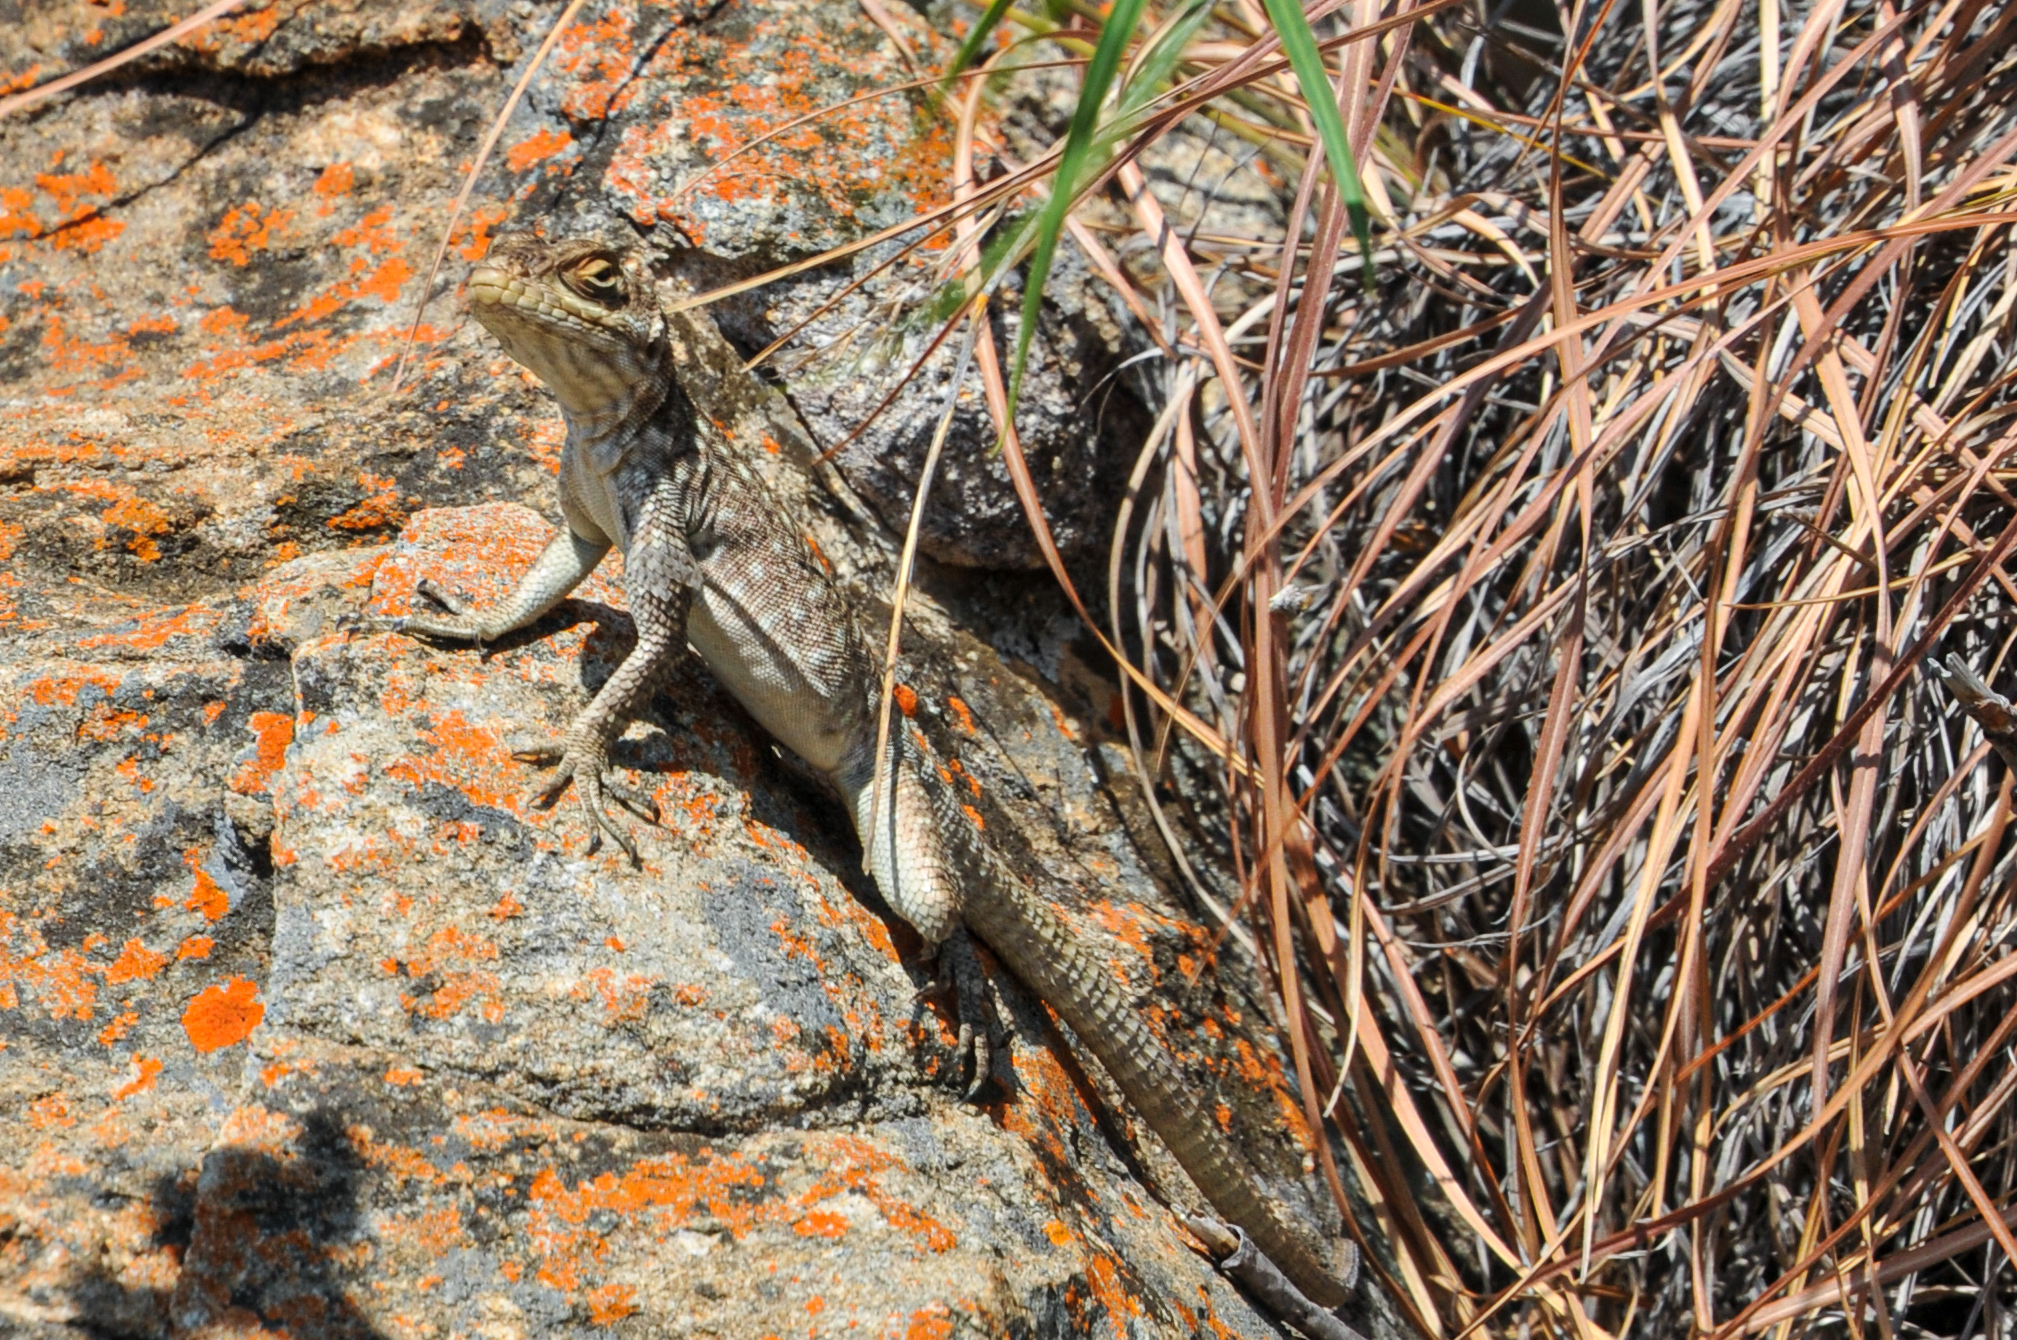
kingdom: Animalia
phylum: Chordata
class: Squamata
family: Opluridae
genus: Oplurus
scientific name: Oplurus quadrimaculatus
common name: Duméril's madagascar swift
